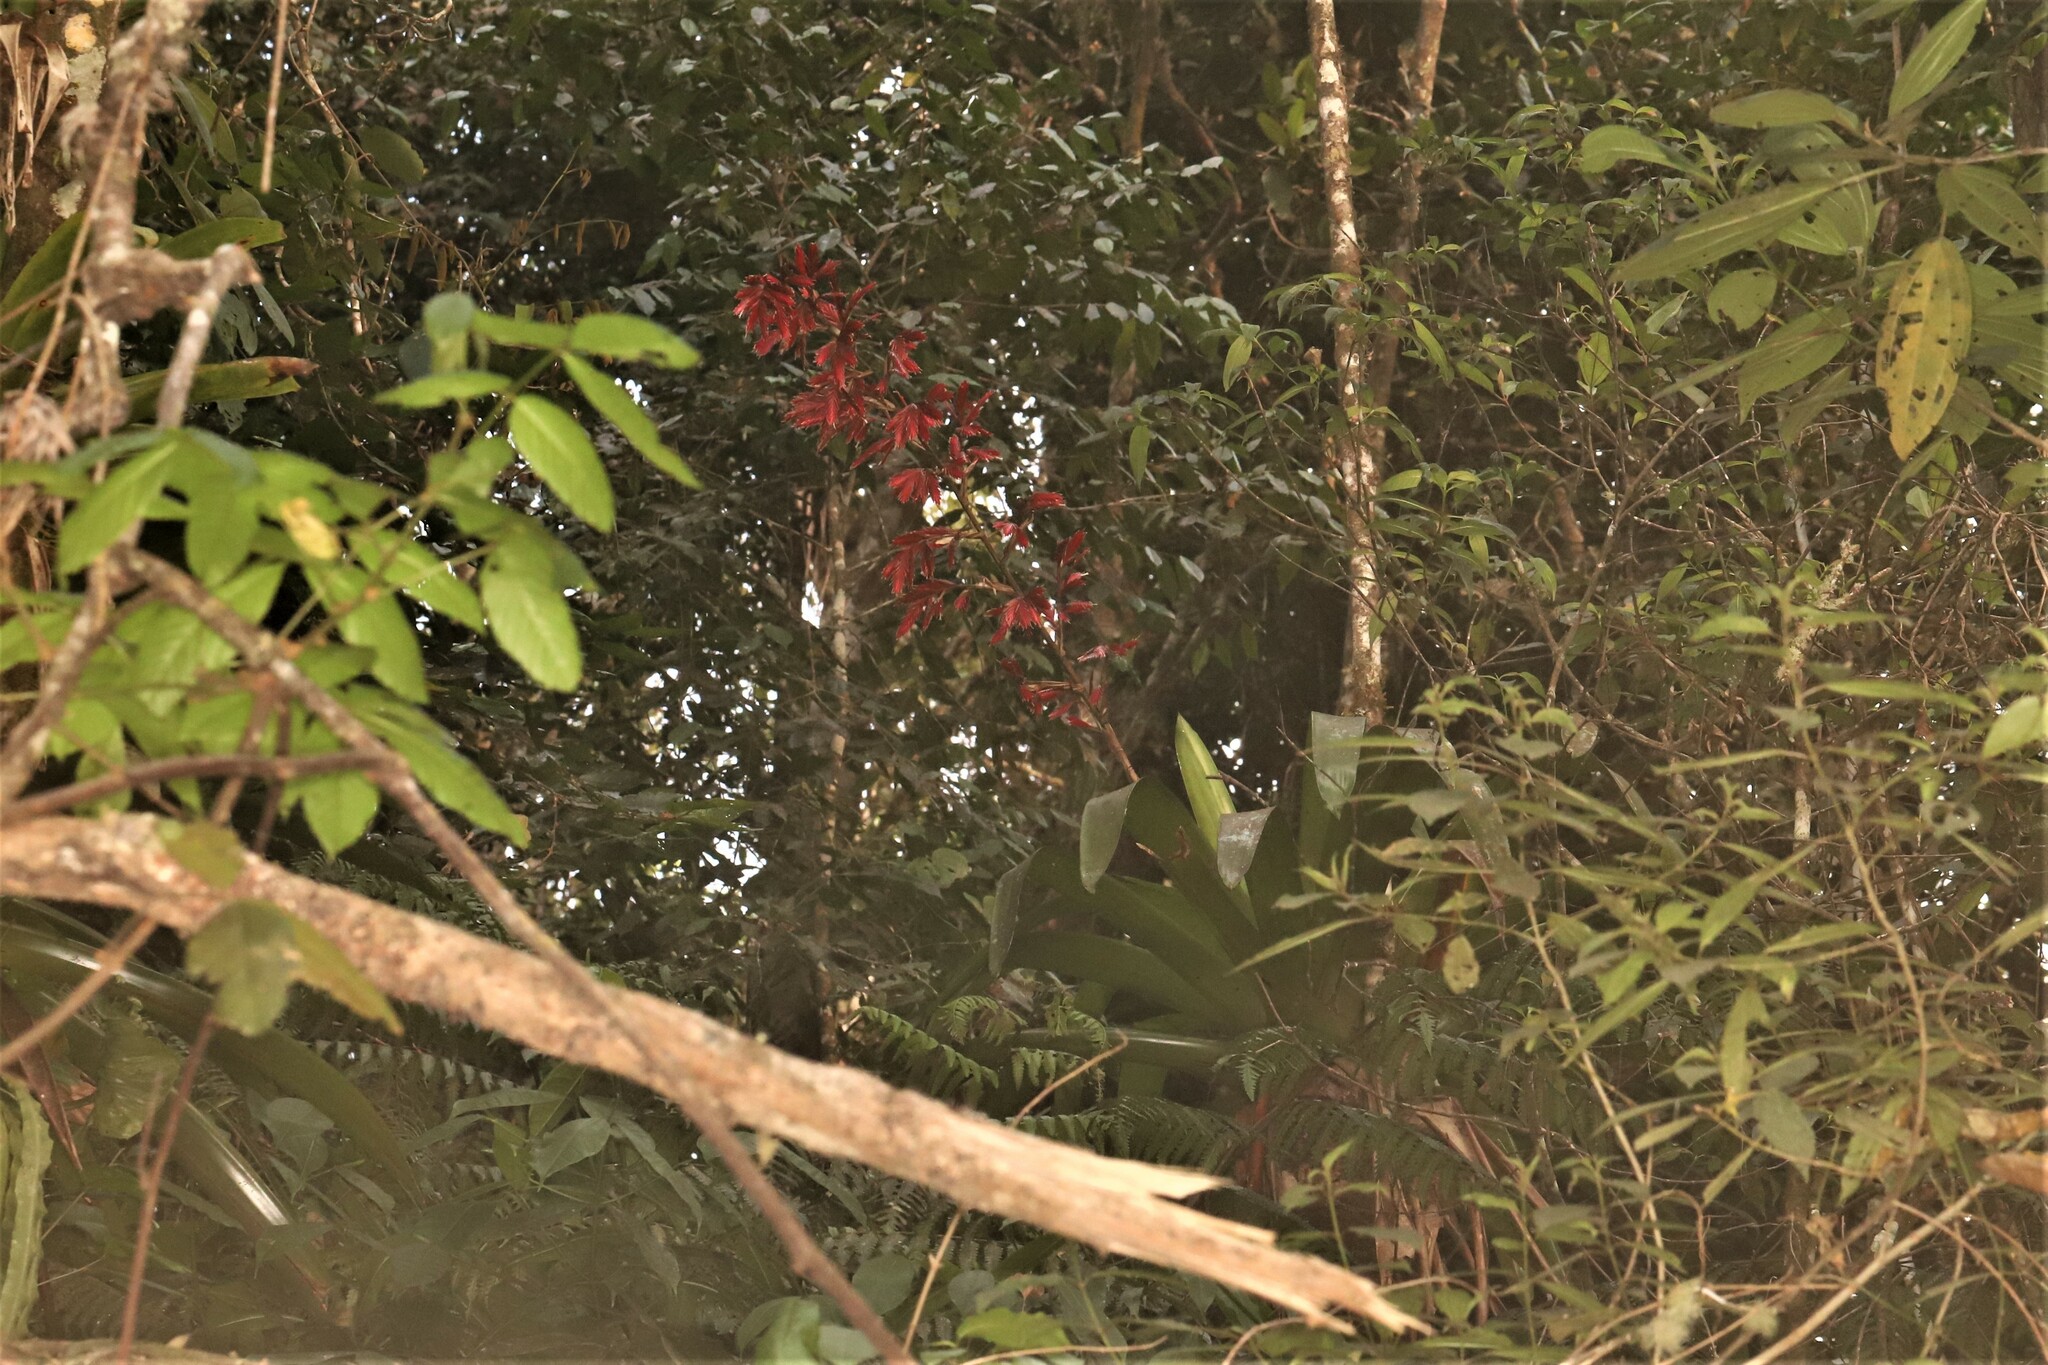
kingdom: Plantae
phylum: Tracheophyta
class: Liliopsida
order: Poales
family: Bromeliaceae
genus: Vriesea
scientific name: Vriesea elata
